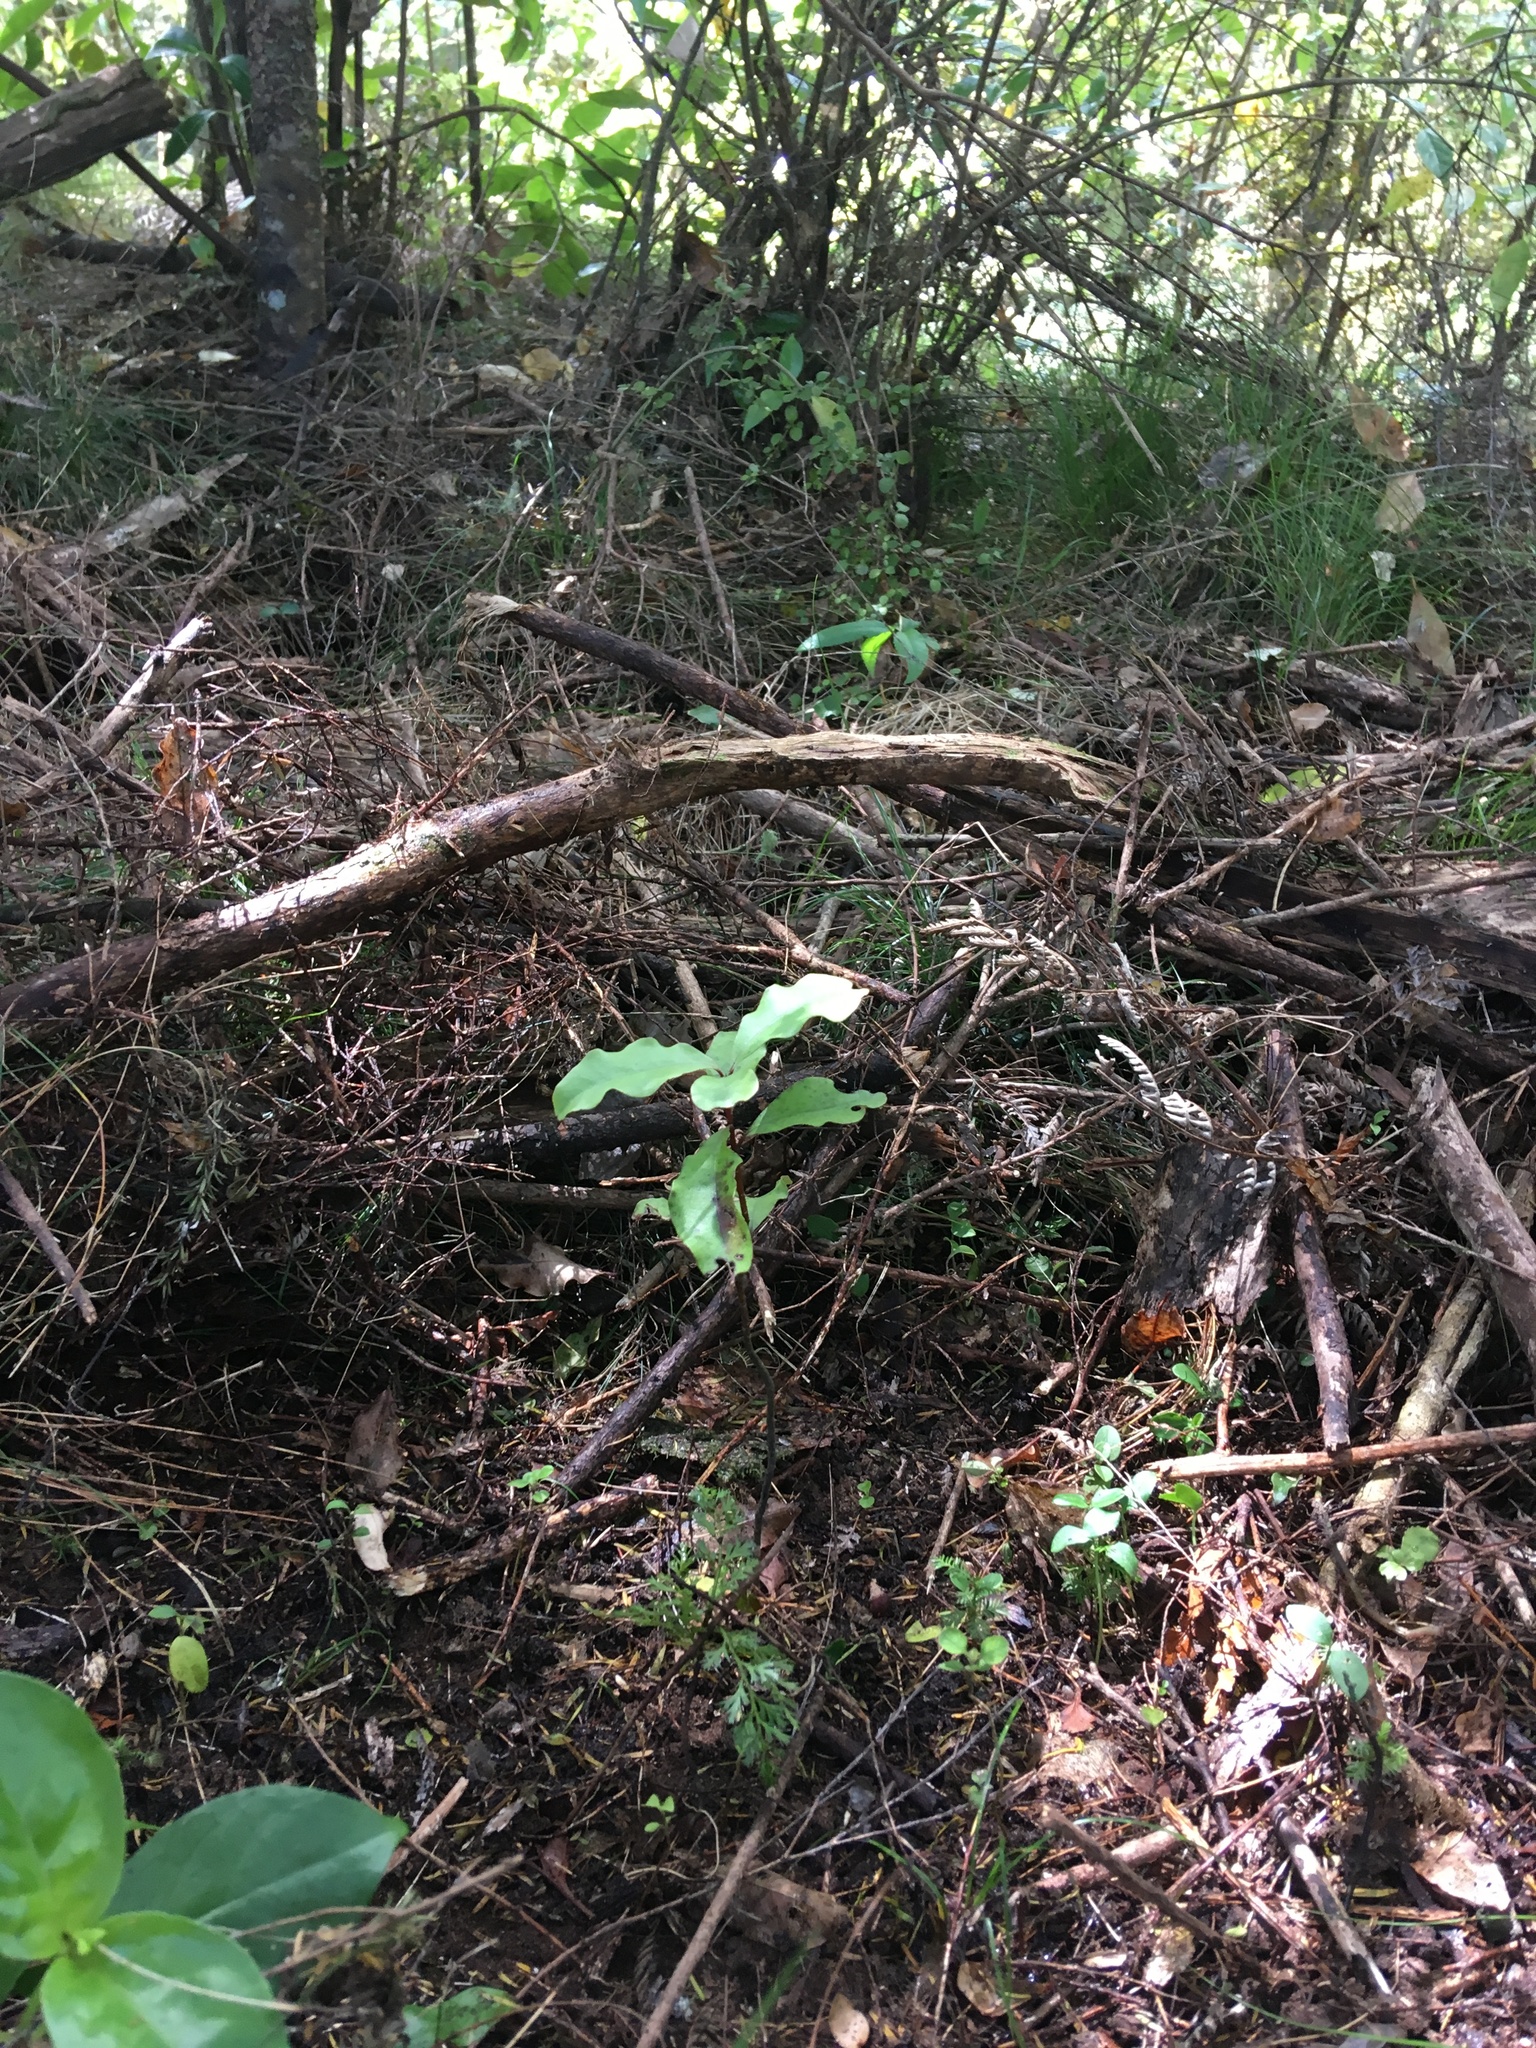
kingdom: Plantae
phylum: Tracheophyta
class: Pinopsida
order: Pinales
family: Phyllocladaceae
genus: Phyllocladus
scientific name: Phyllocladus trichomanoides
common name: Celery pine
